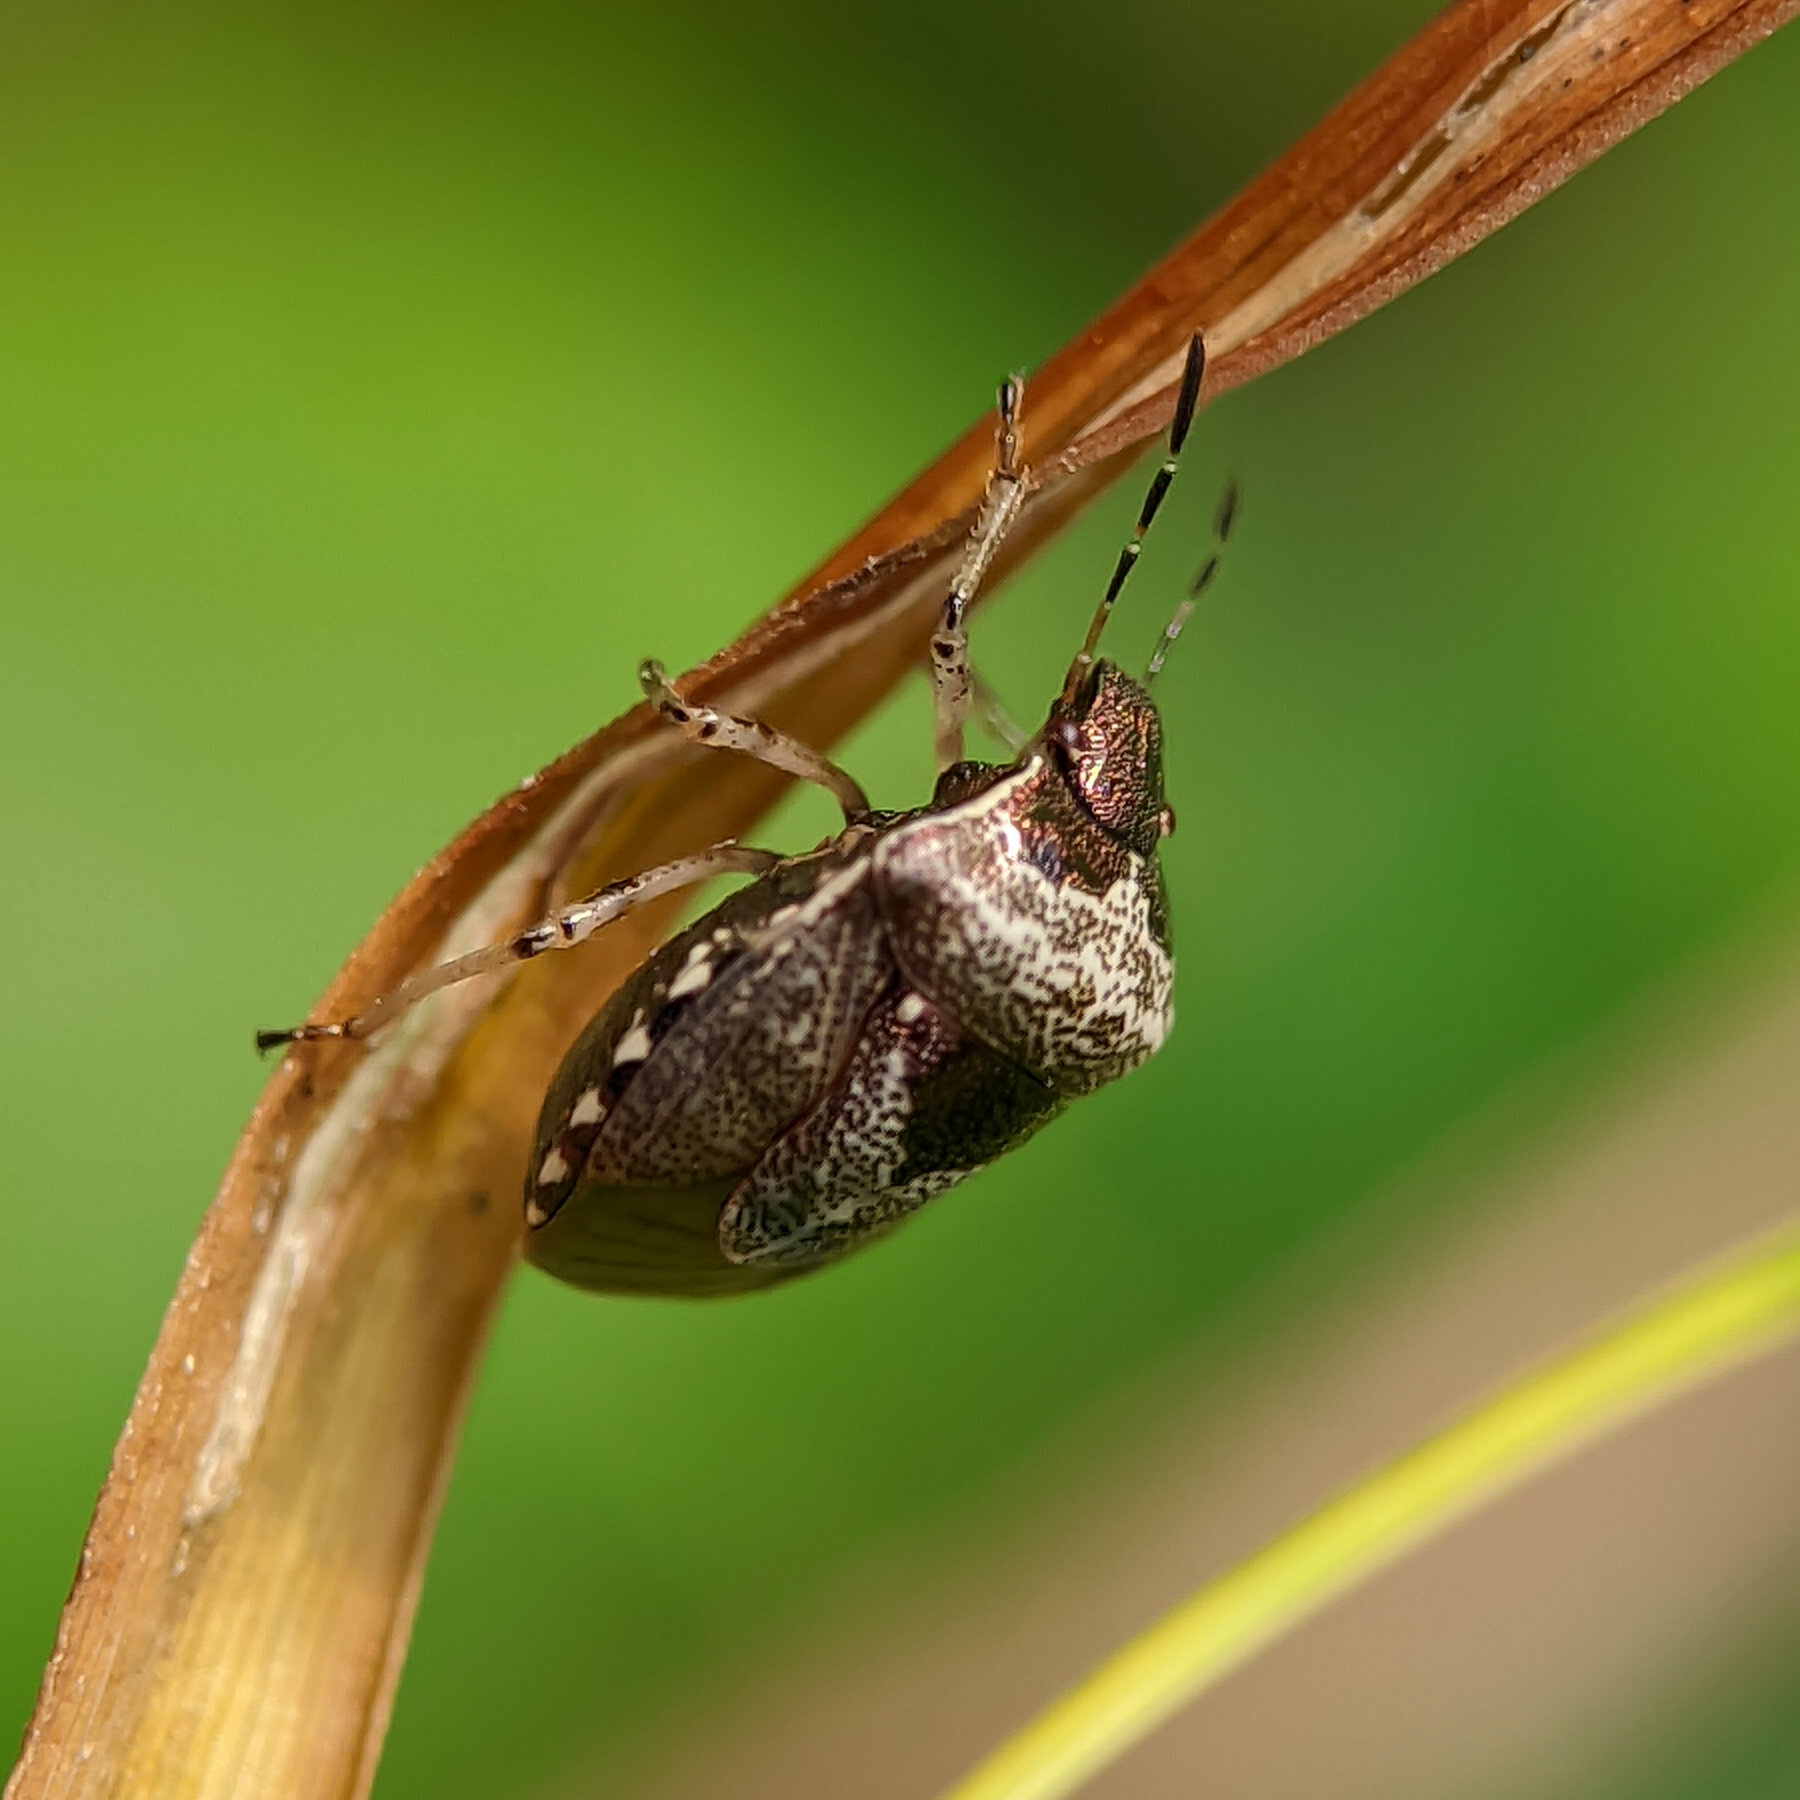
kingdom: Animalia
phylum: Arthropoda
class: Insecta
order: Hemiptera
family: Pentatomidae
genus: Eysarcoris
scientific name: Eysarcoris venustissimus
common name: Woundwort shieldbug
